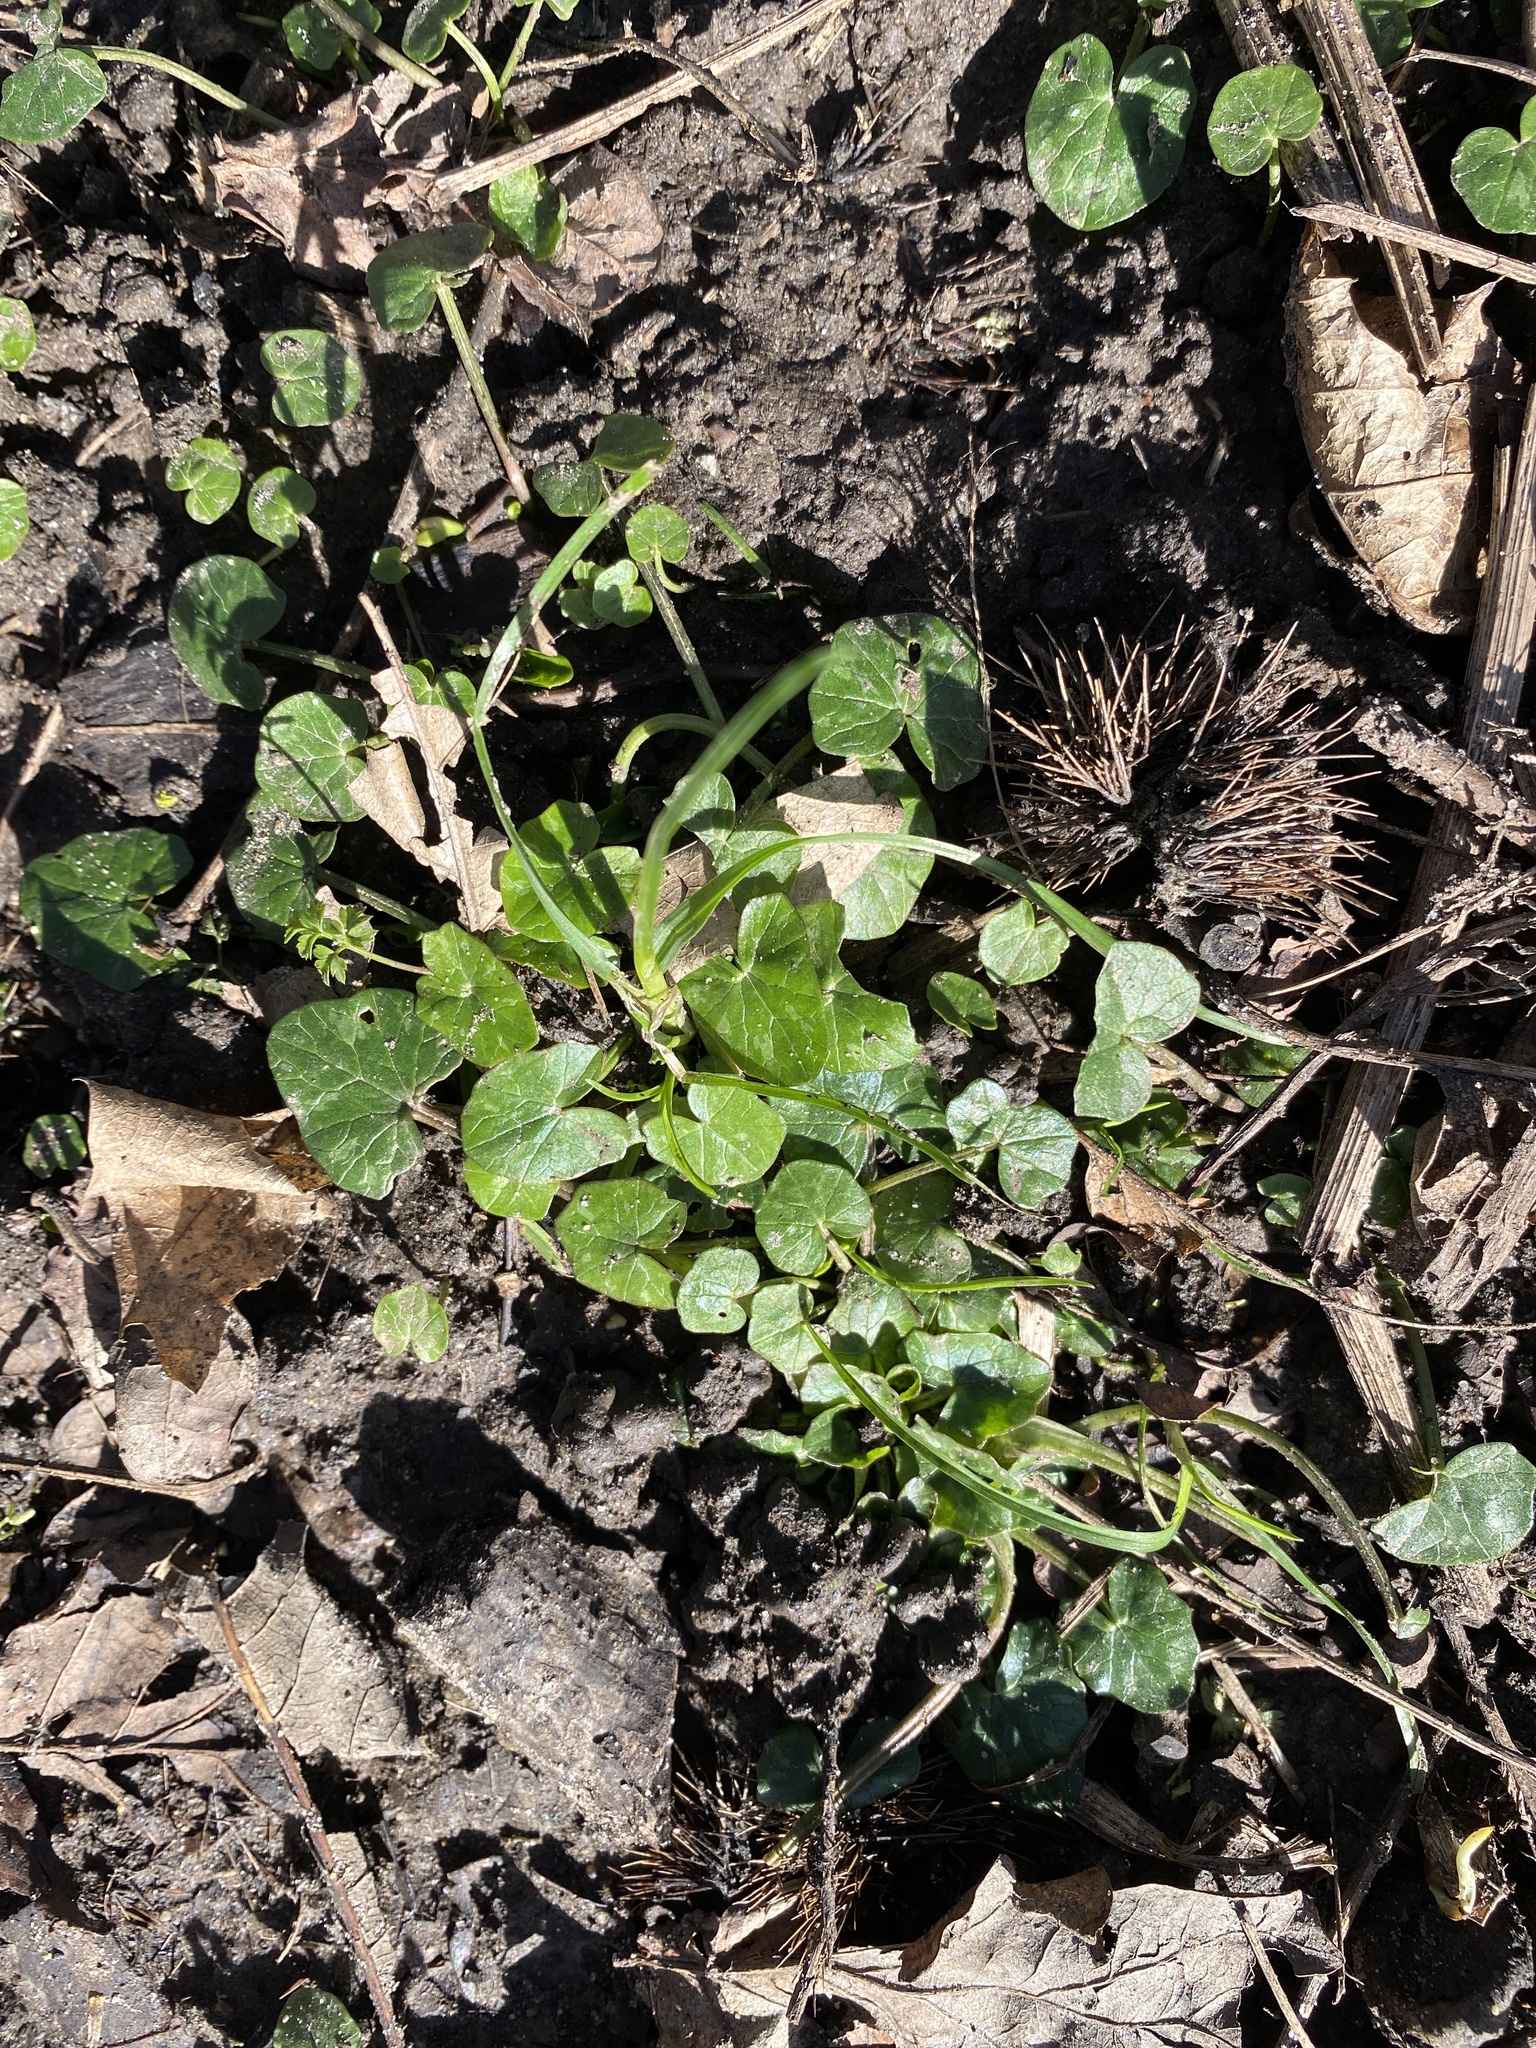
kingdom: Plantae
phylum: Tracheophyta
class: Magnoliopsida
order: Ranunculales
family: Ranunculaceae
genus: Ficaria
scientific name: Ficaria verna
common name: Lesser celandine
